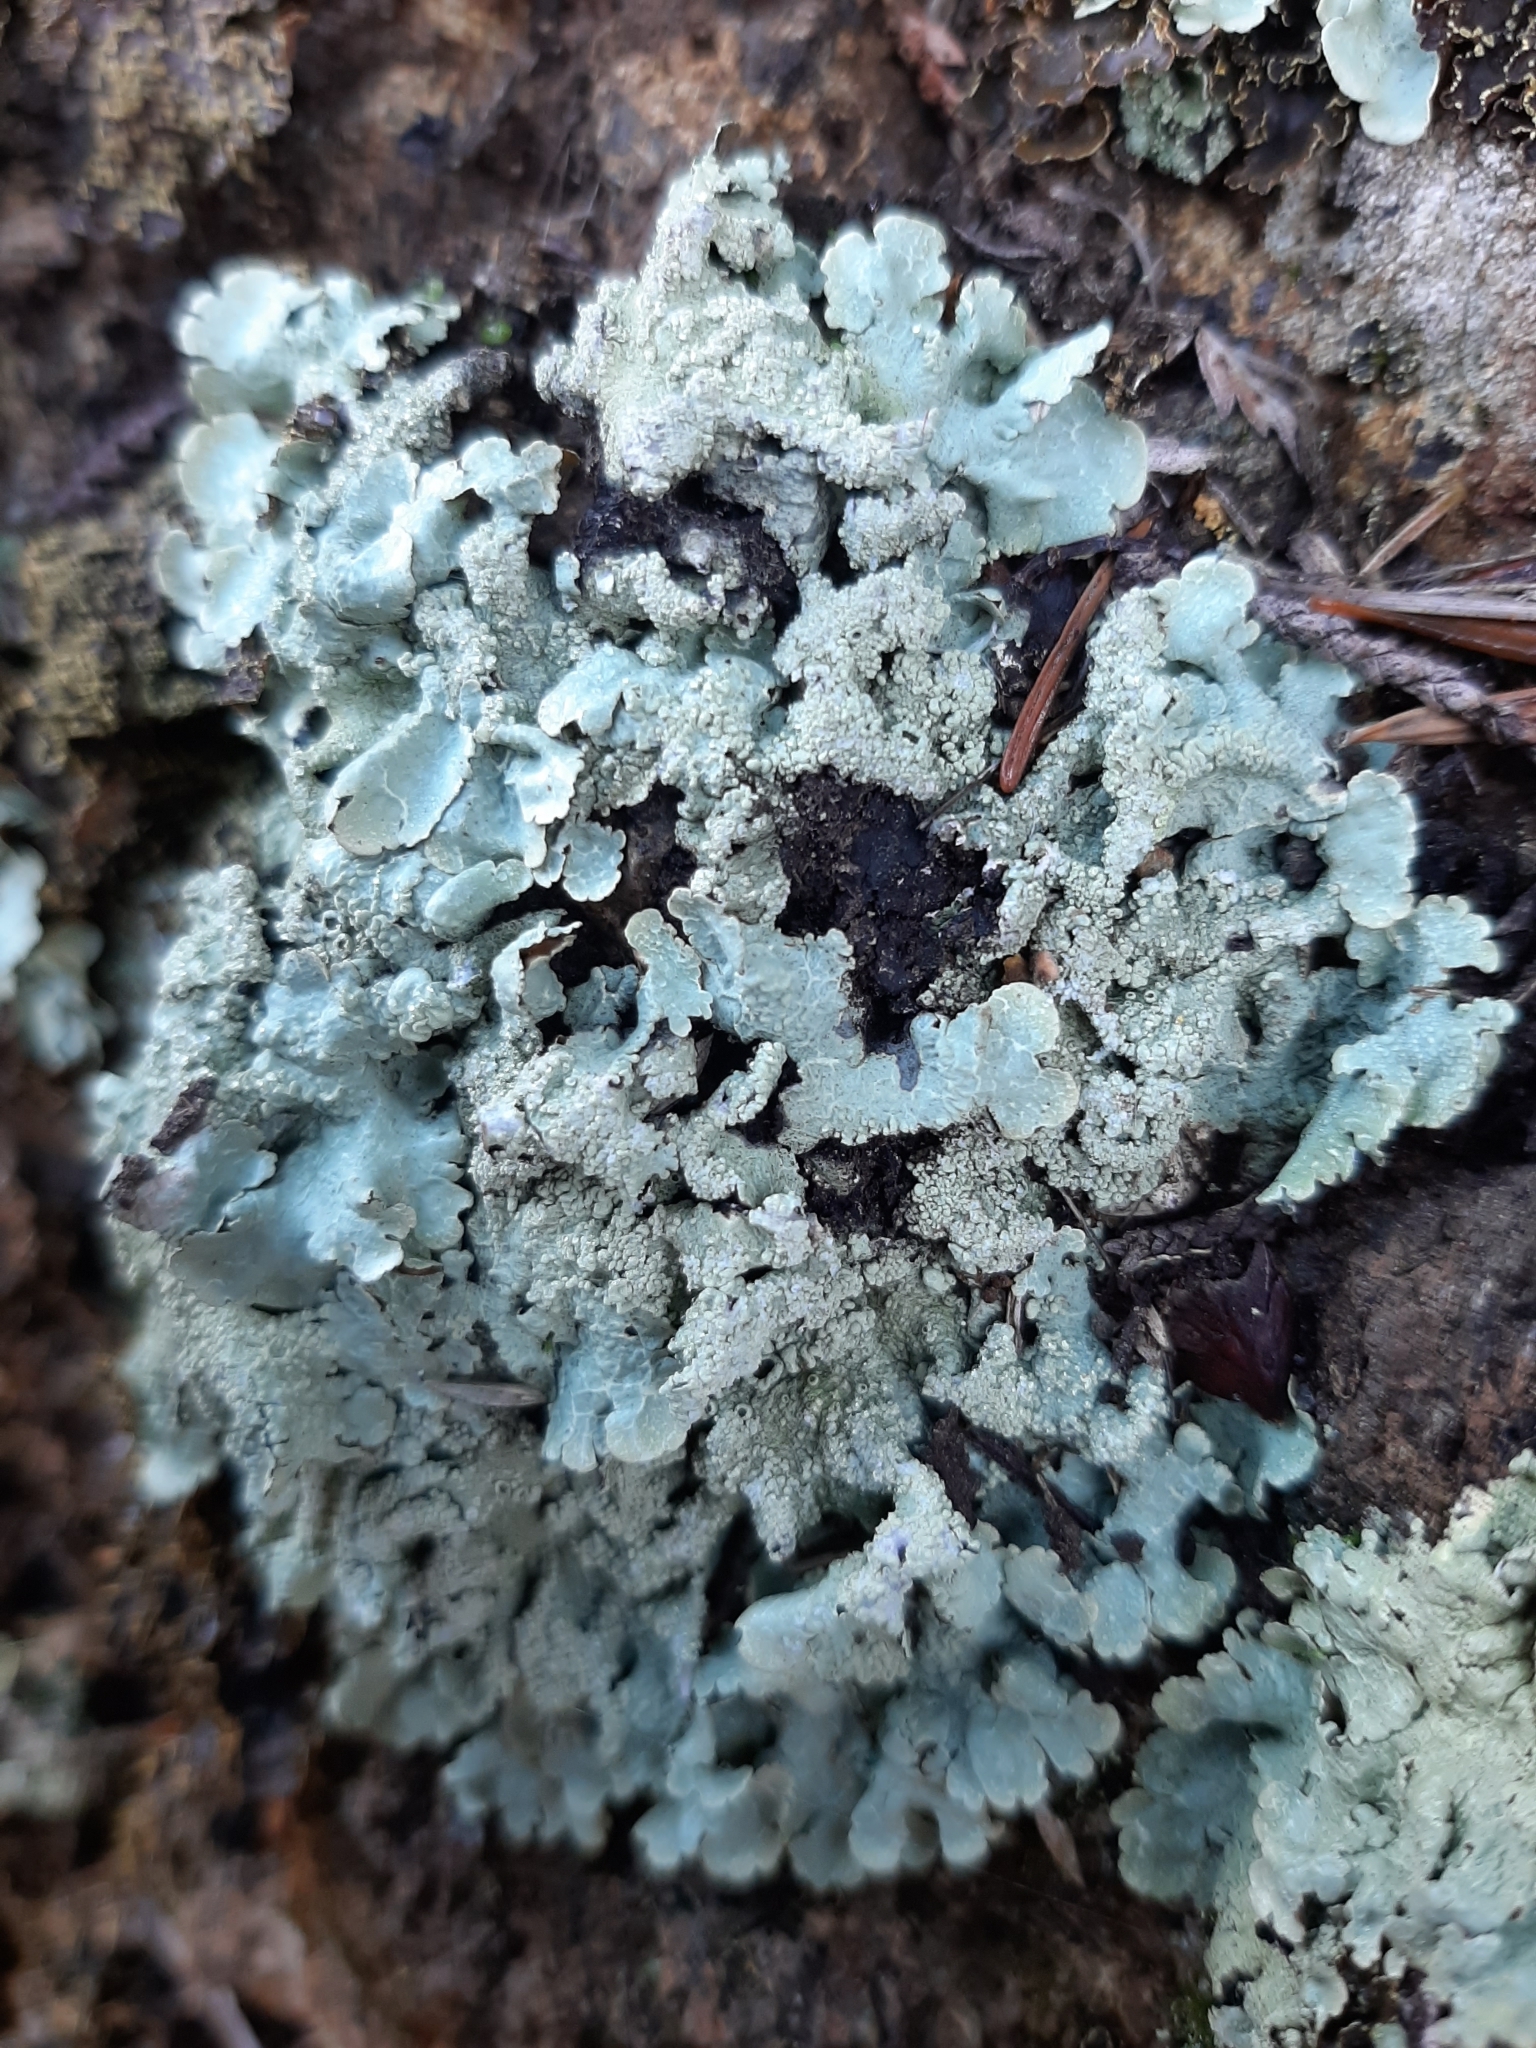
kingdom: Fungi
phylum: Ascomycota
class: Lecanoromycetes
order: Lecanorales
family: Parmeliaceae
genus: Flavoparmelia
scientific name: Flavoparmelia haysomii
